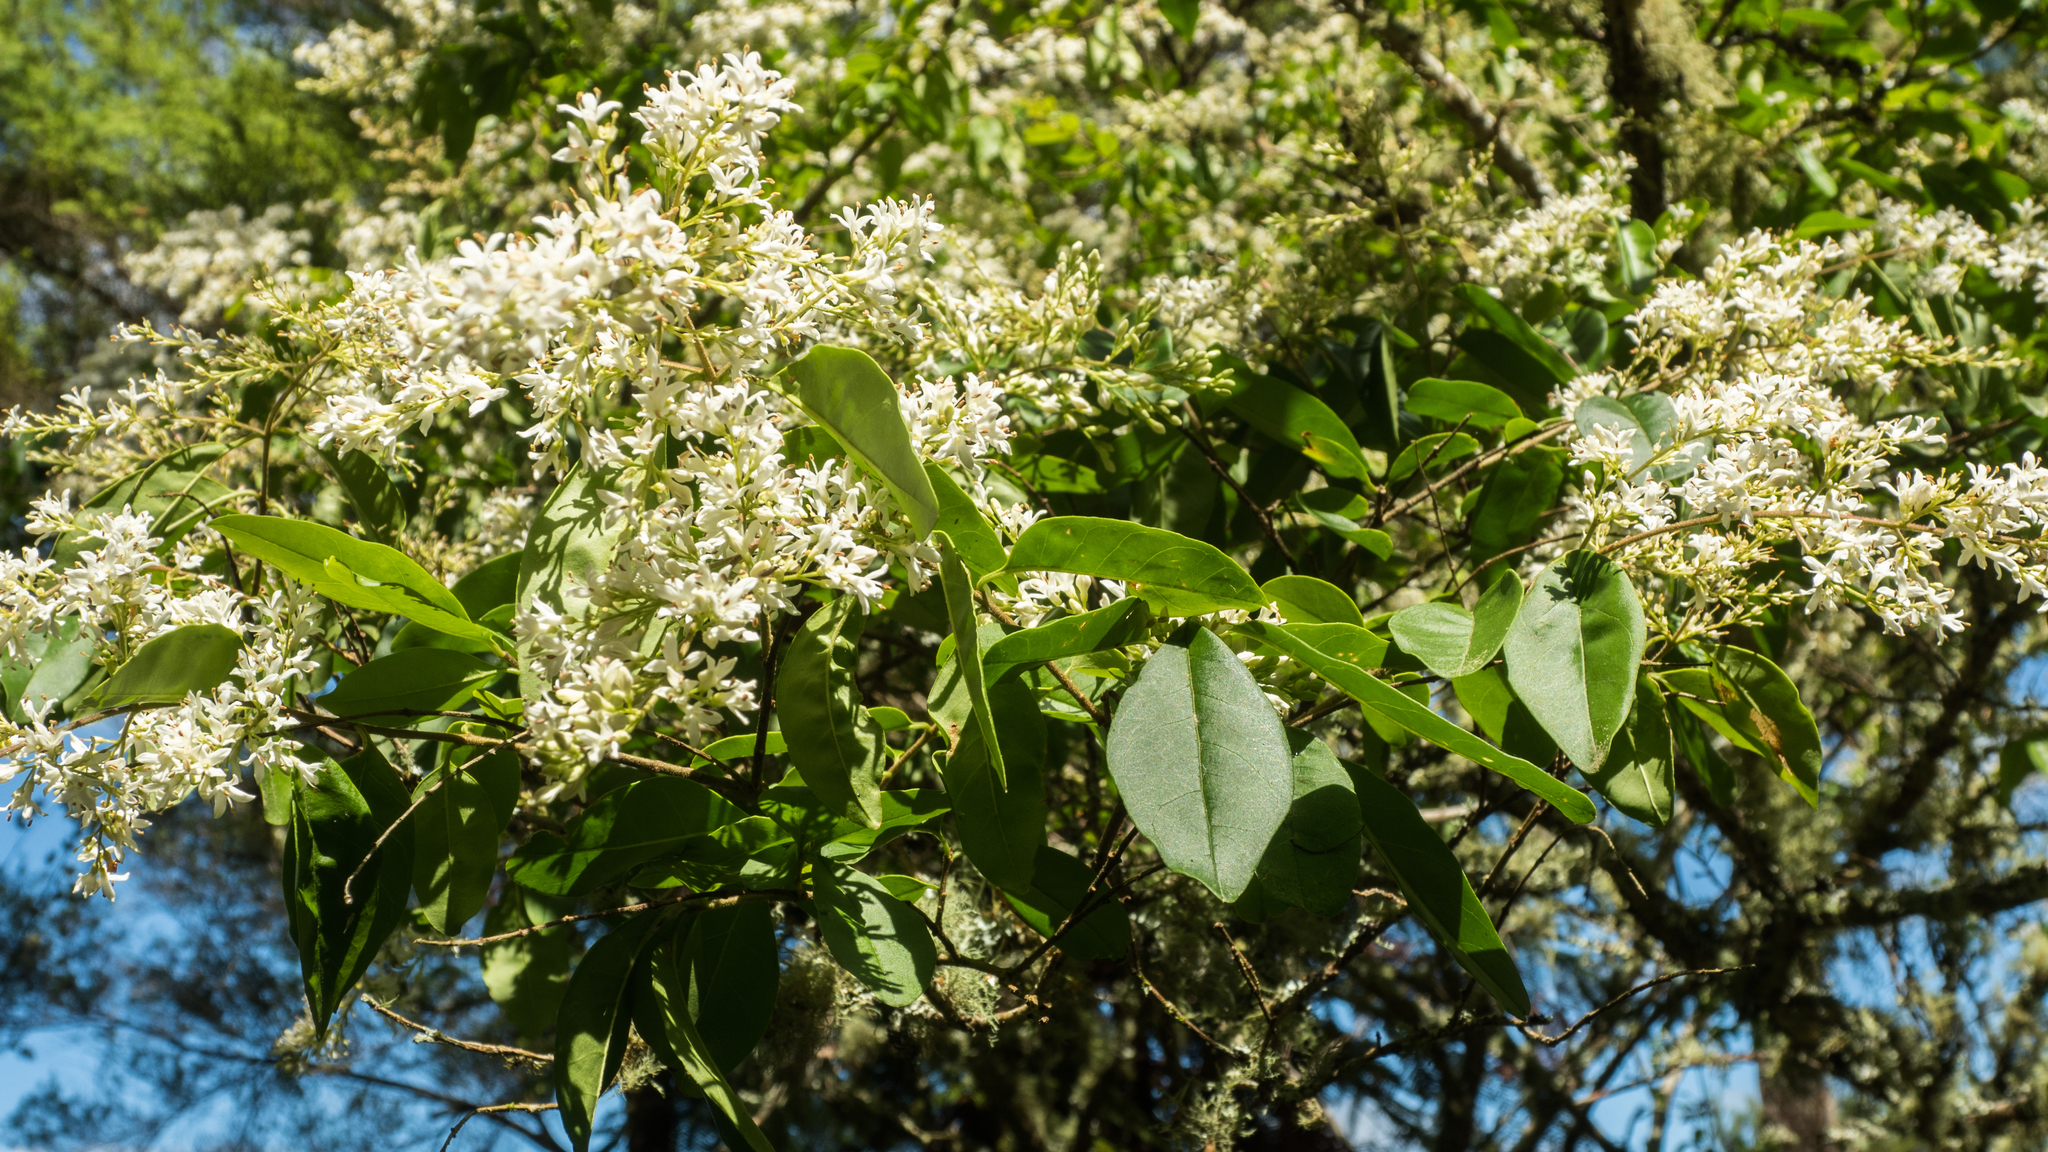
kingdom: Plantae
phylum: Tracheophyta
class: Magnoliopsida
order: Lamiales
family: Oleaceae
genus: Ligustrum
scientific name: Ligustrum sinense
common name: Chinese privet
